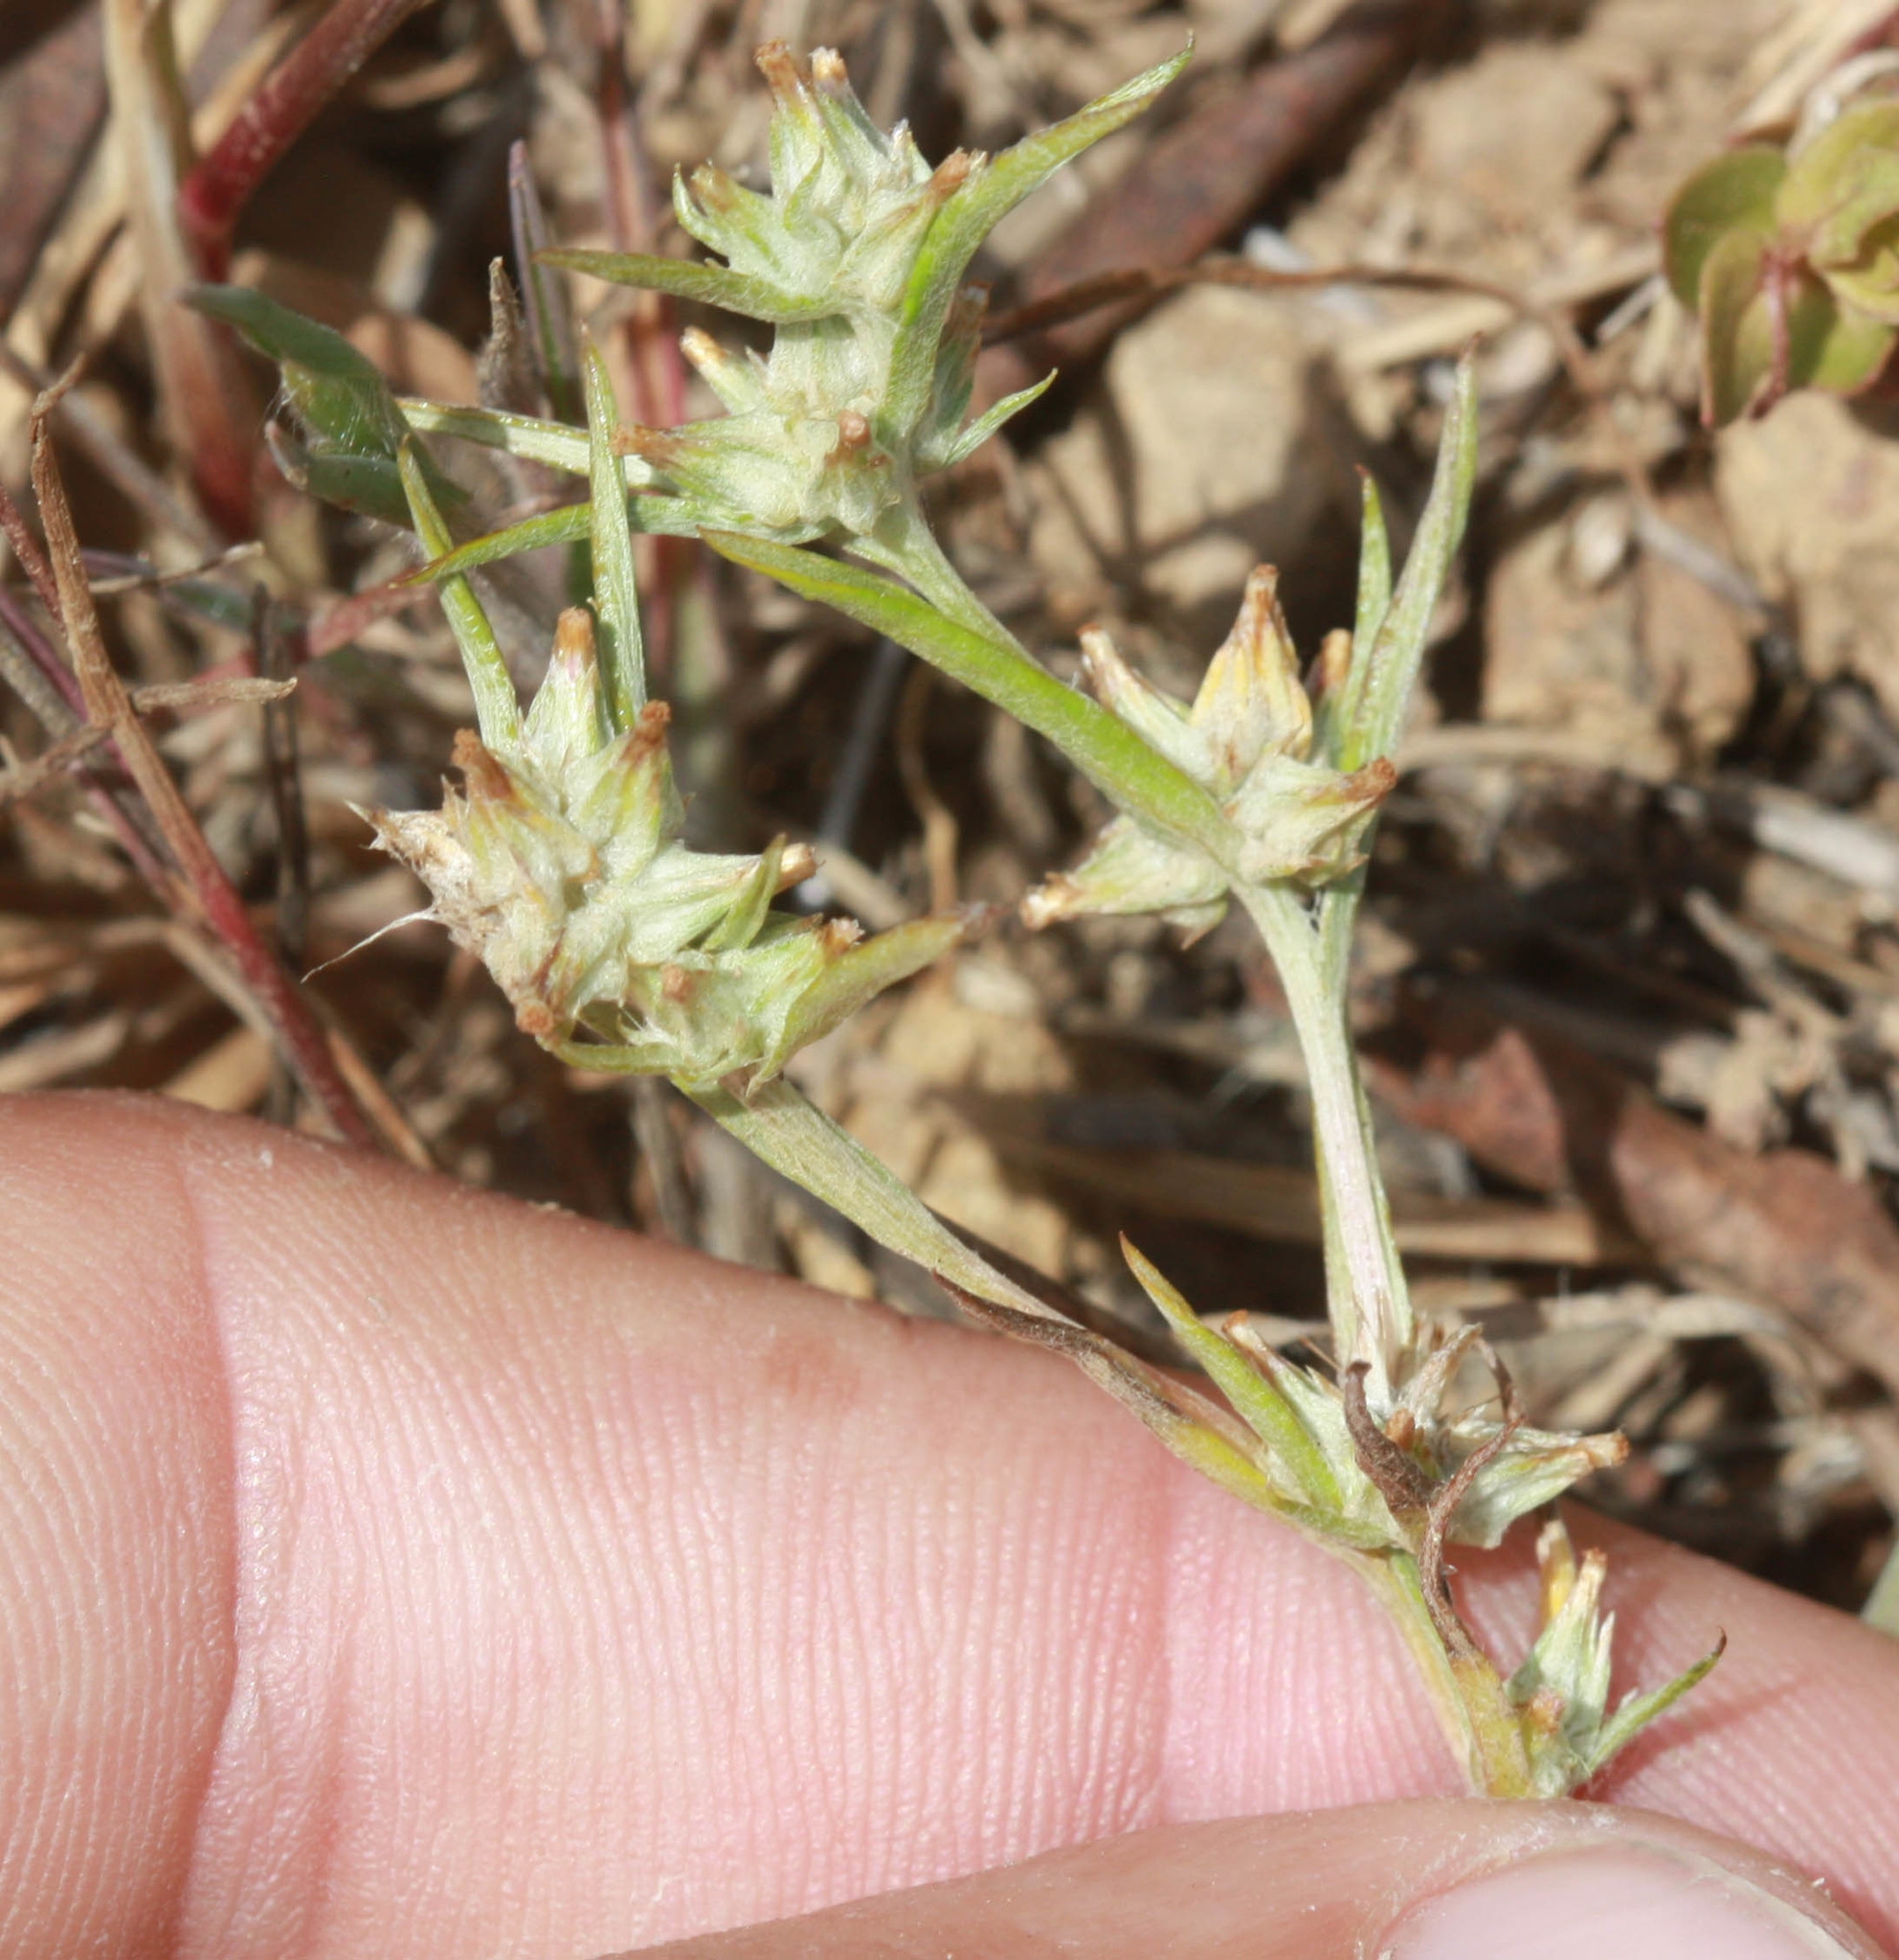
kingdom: Plantae
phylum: Tracheophyta
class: Magnoliopsida
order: Asterales
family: Asteraceae
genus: Logfia
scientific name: Logfia gallica
